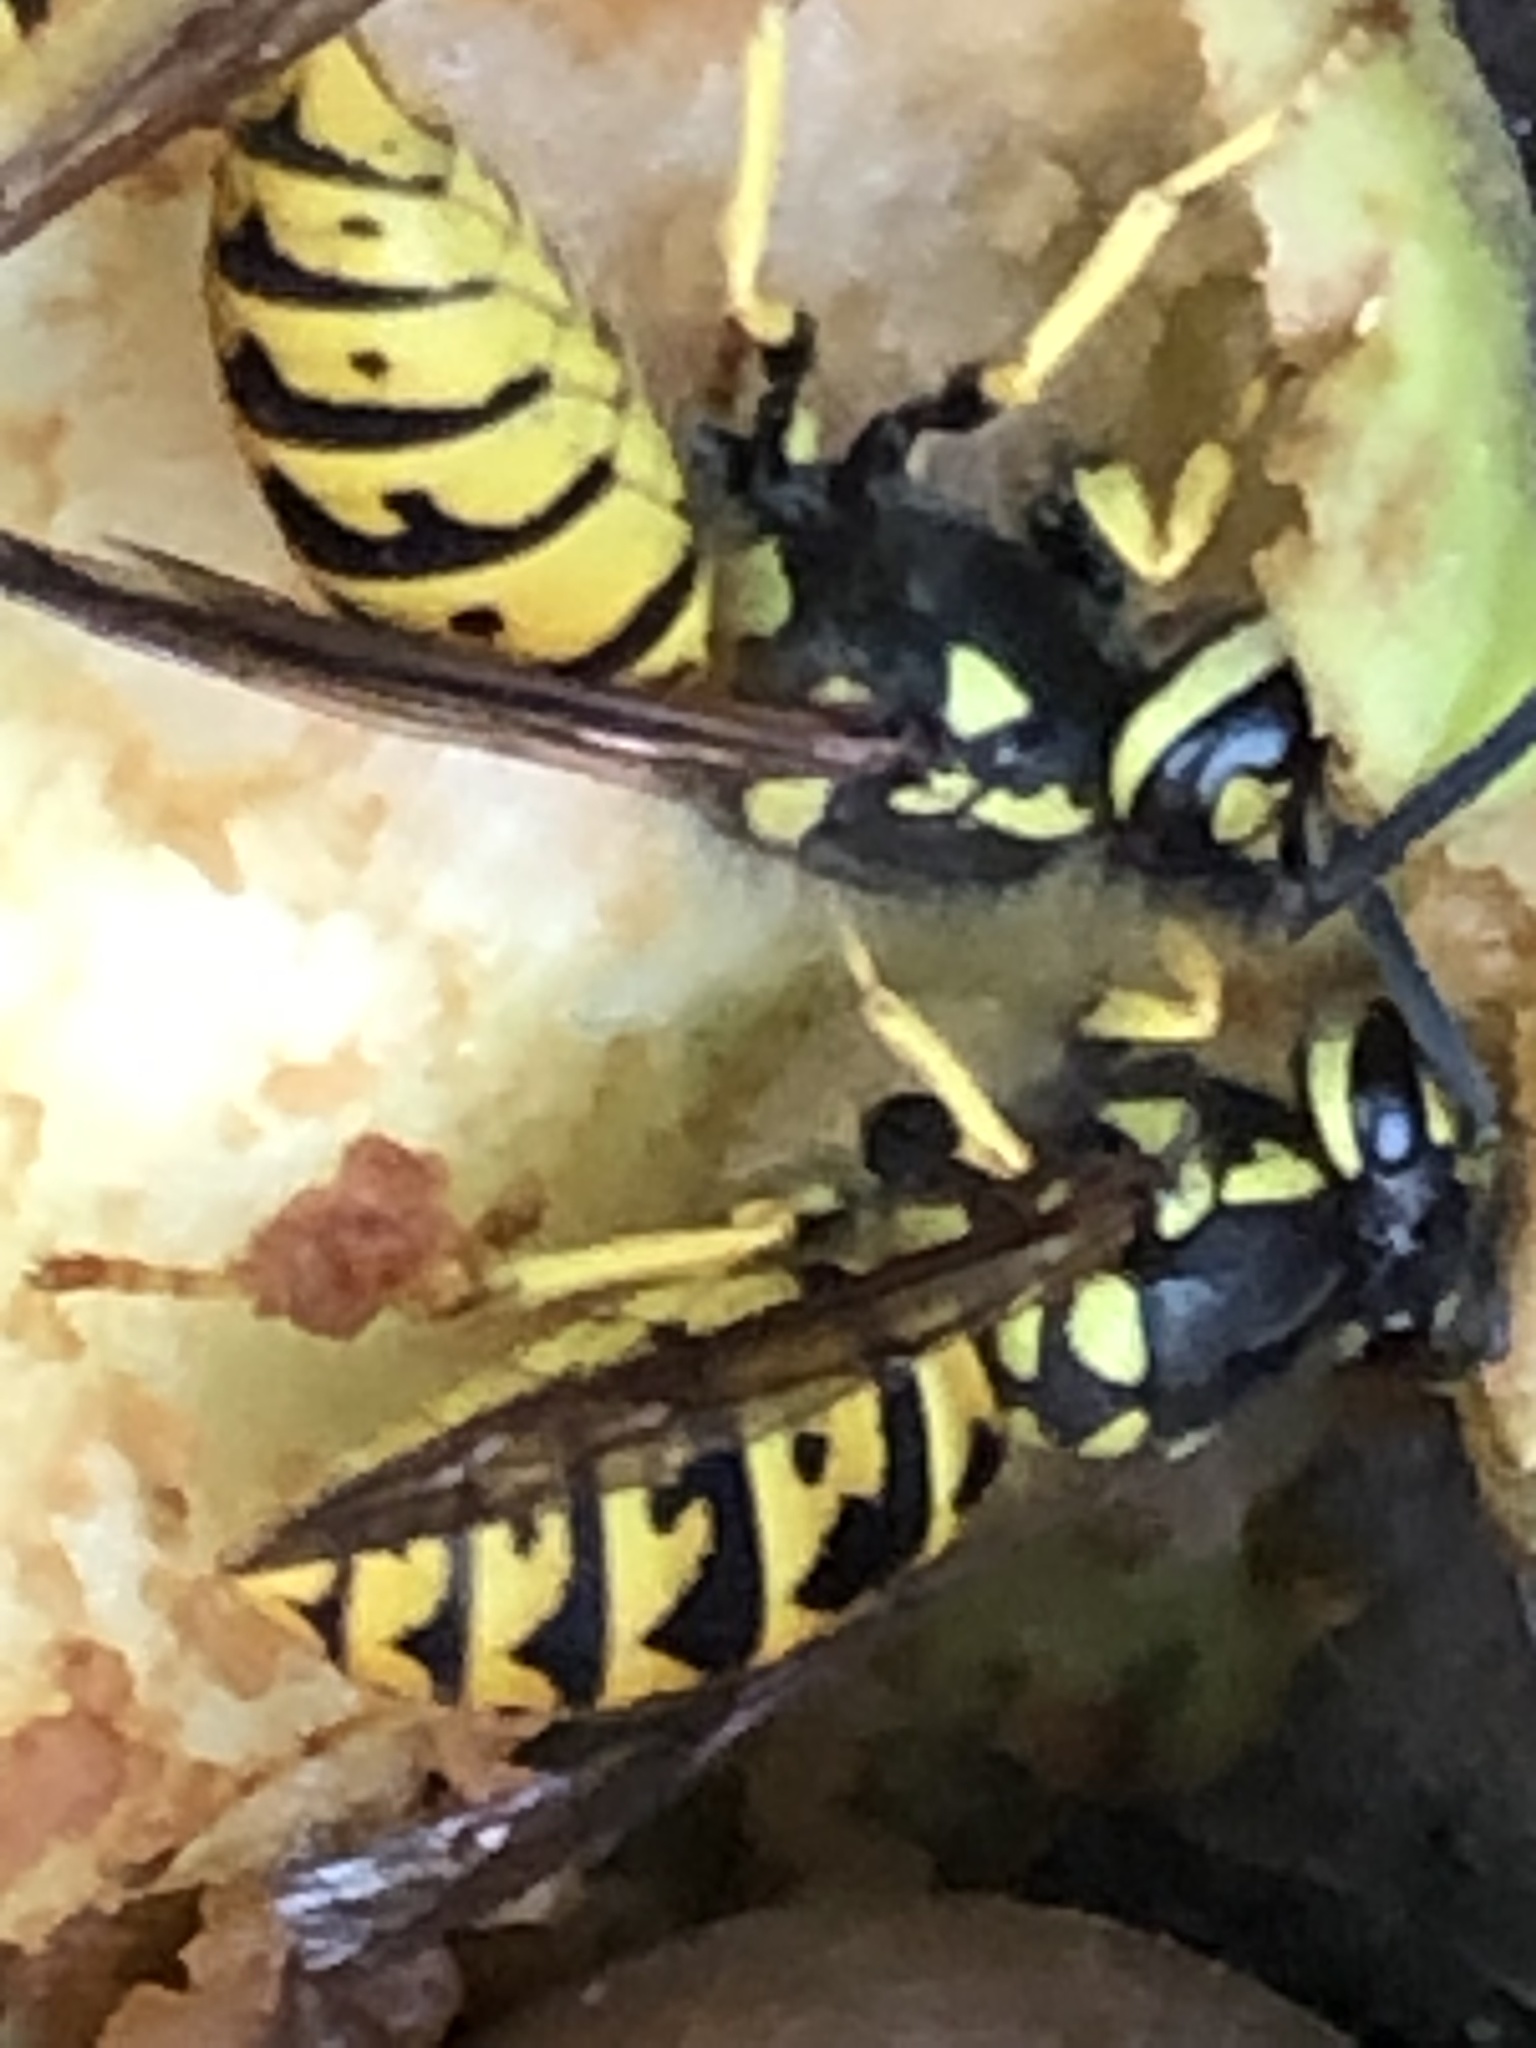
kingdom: Animalia
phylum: Arthropoda
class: Insecta
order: Hymenoptera
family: Vespidae
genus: Vespula
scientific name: Vespula germanica
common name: German wasp
